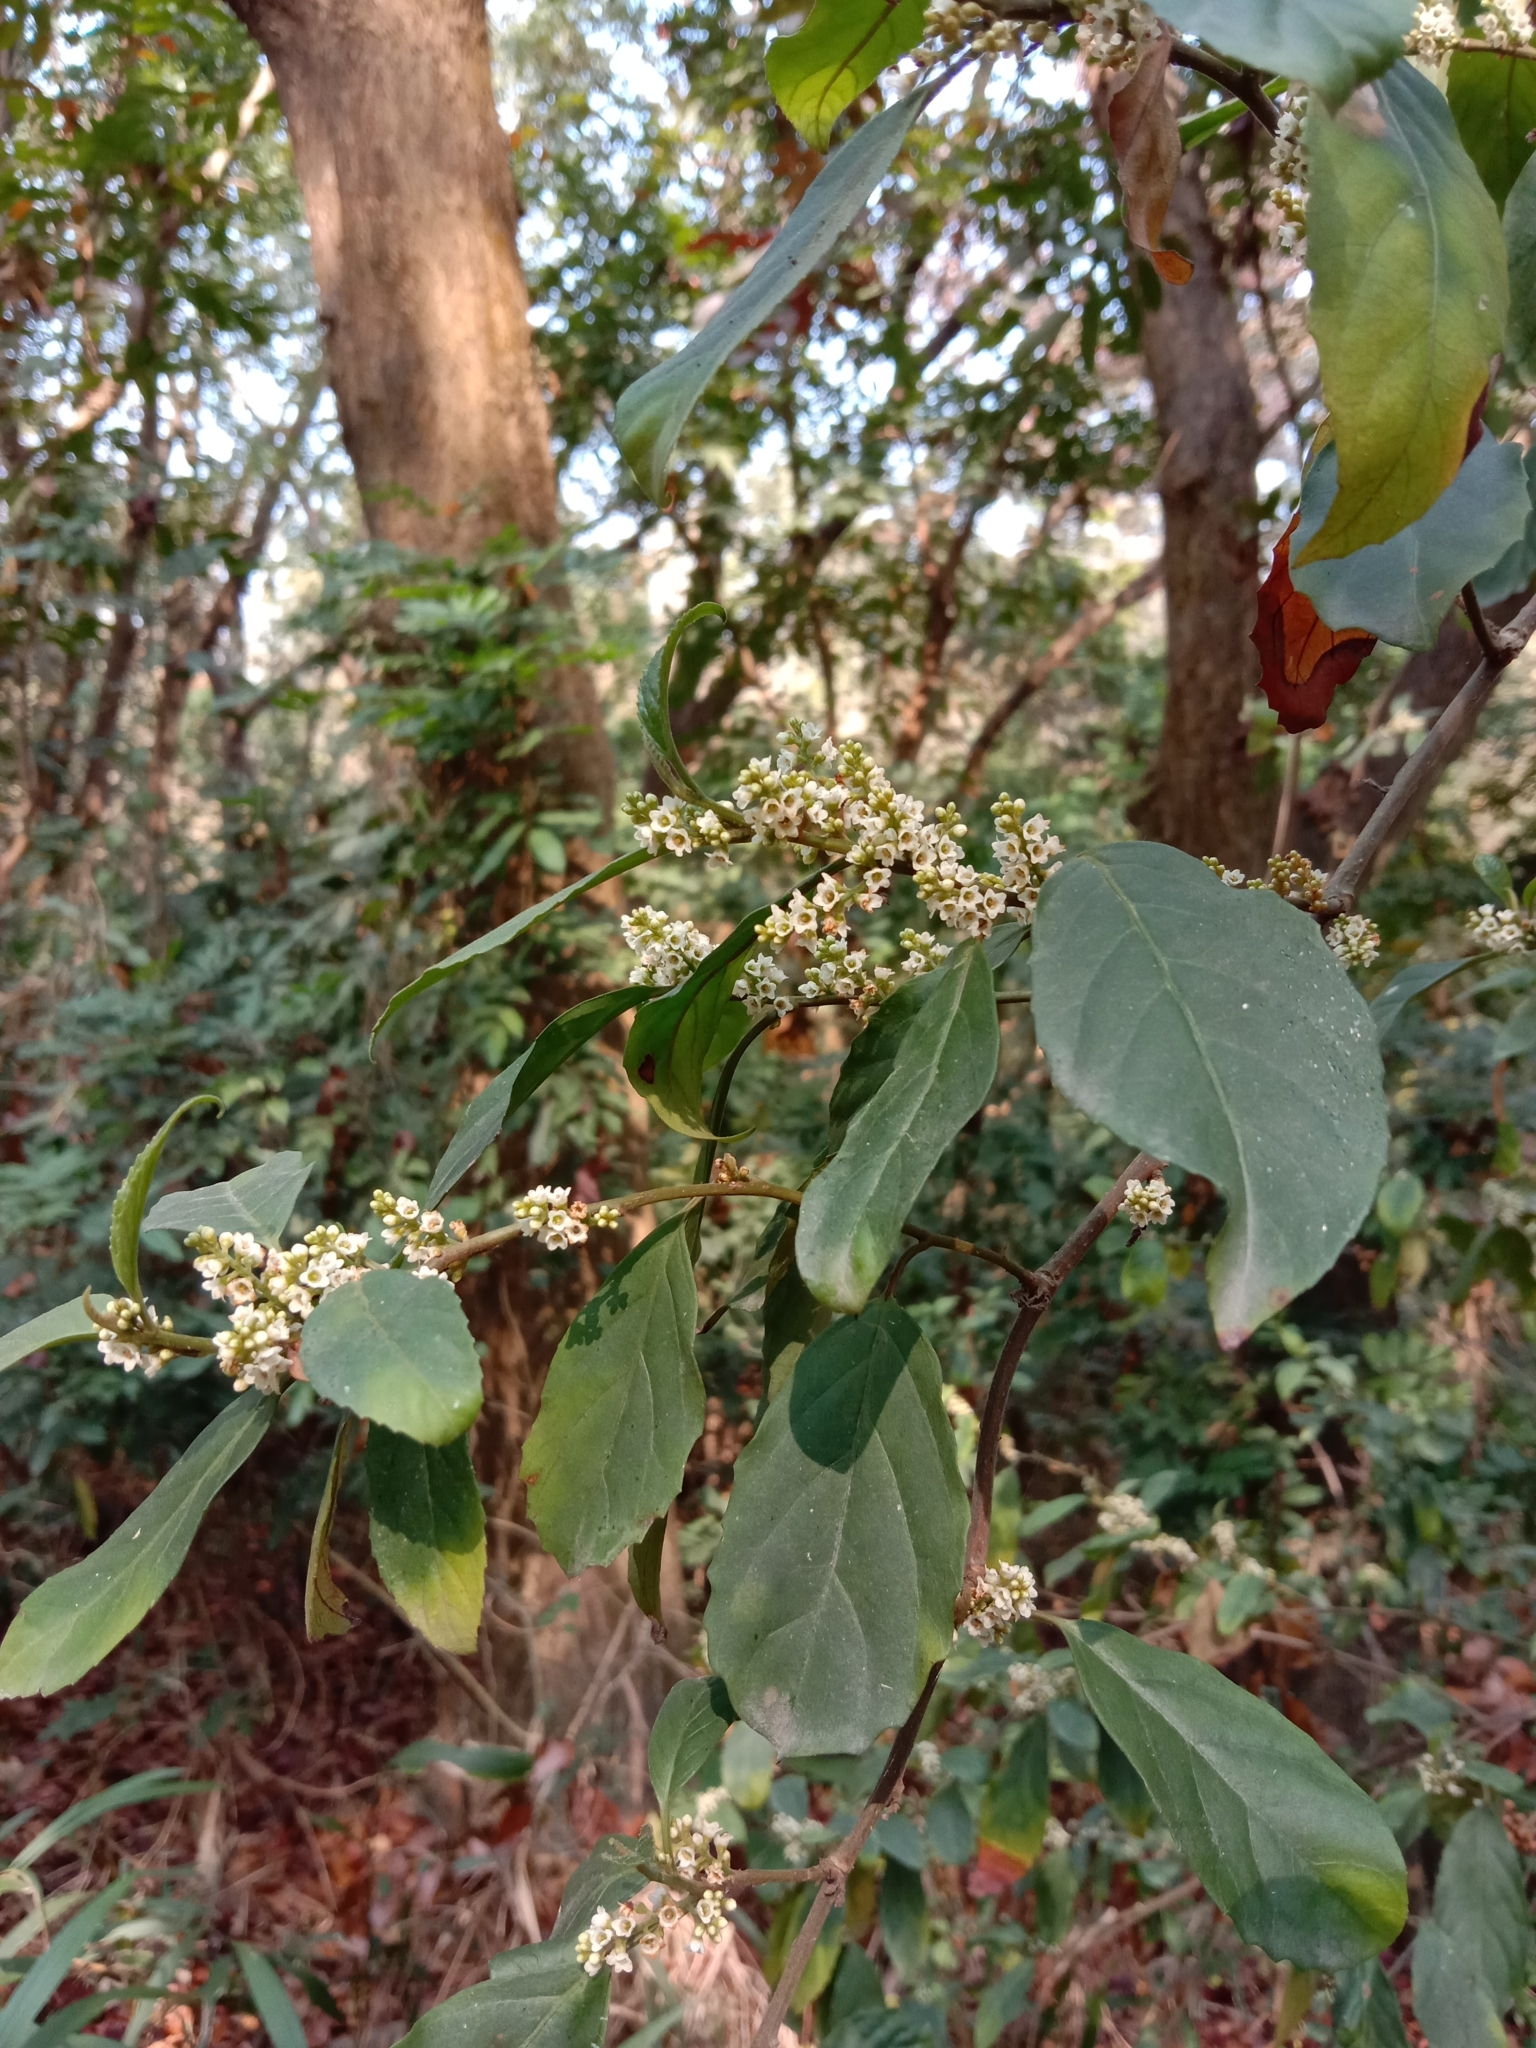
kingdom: Plantae
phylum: Tracheophyta
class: Magnoliopsida
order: Ericales
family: Primulaceae
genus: Maesa
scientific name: Maesa perlaria
